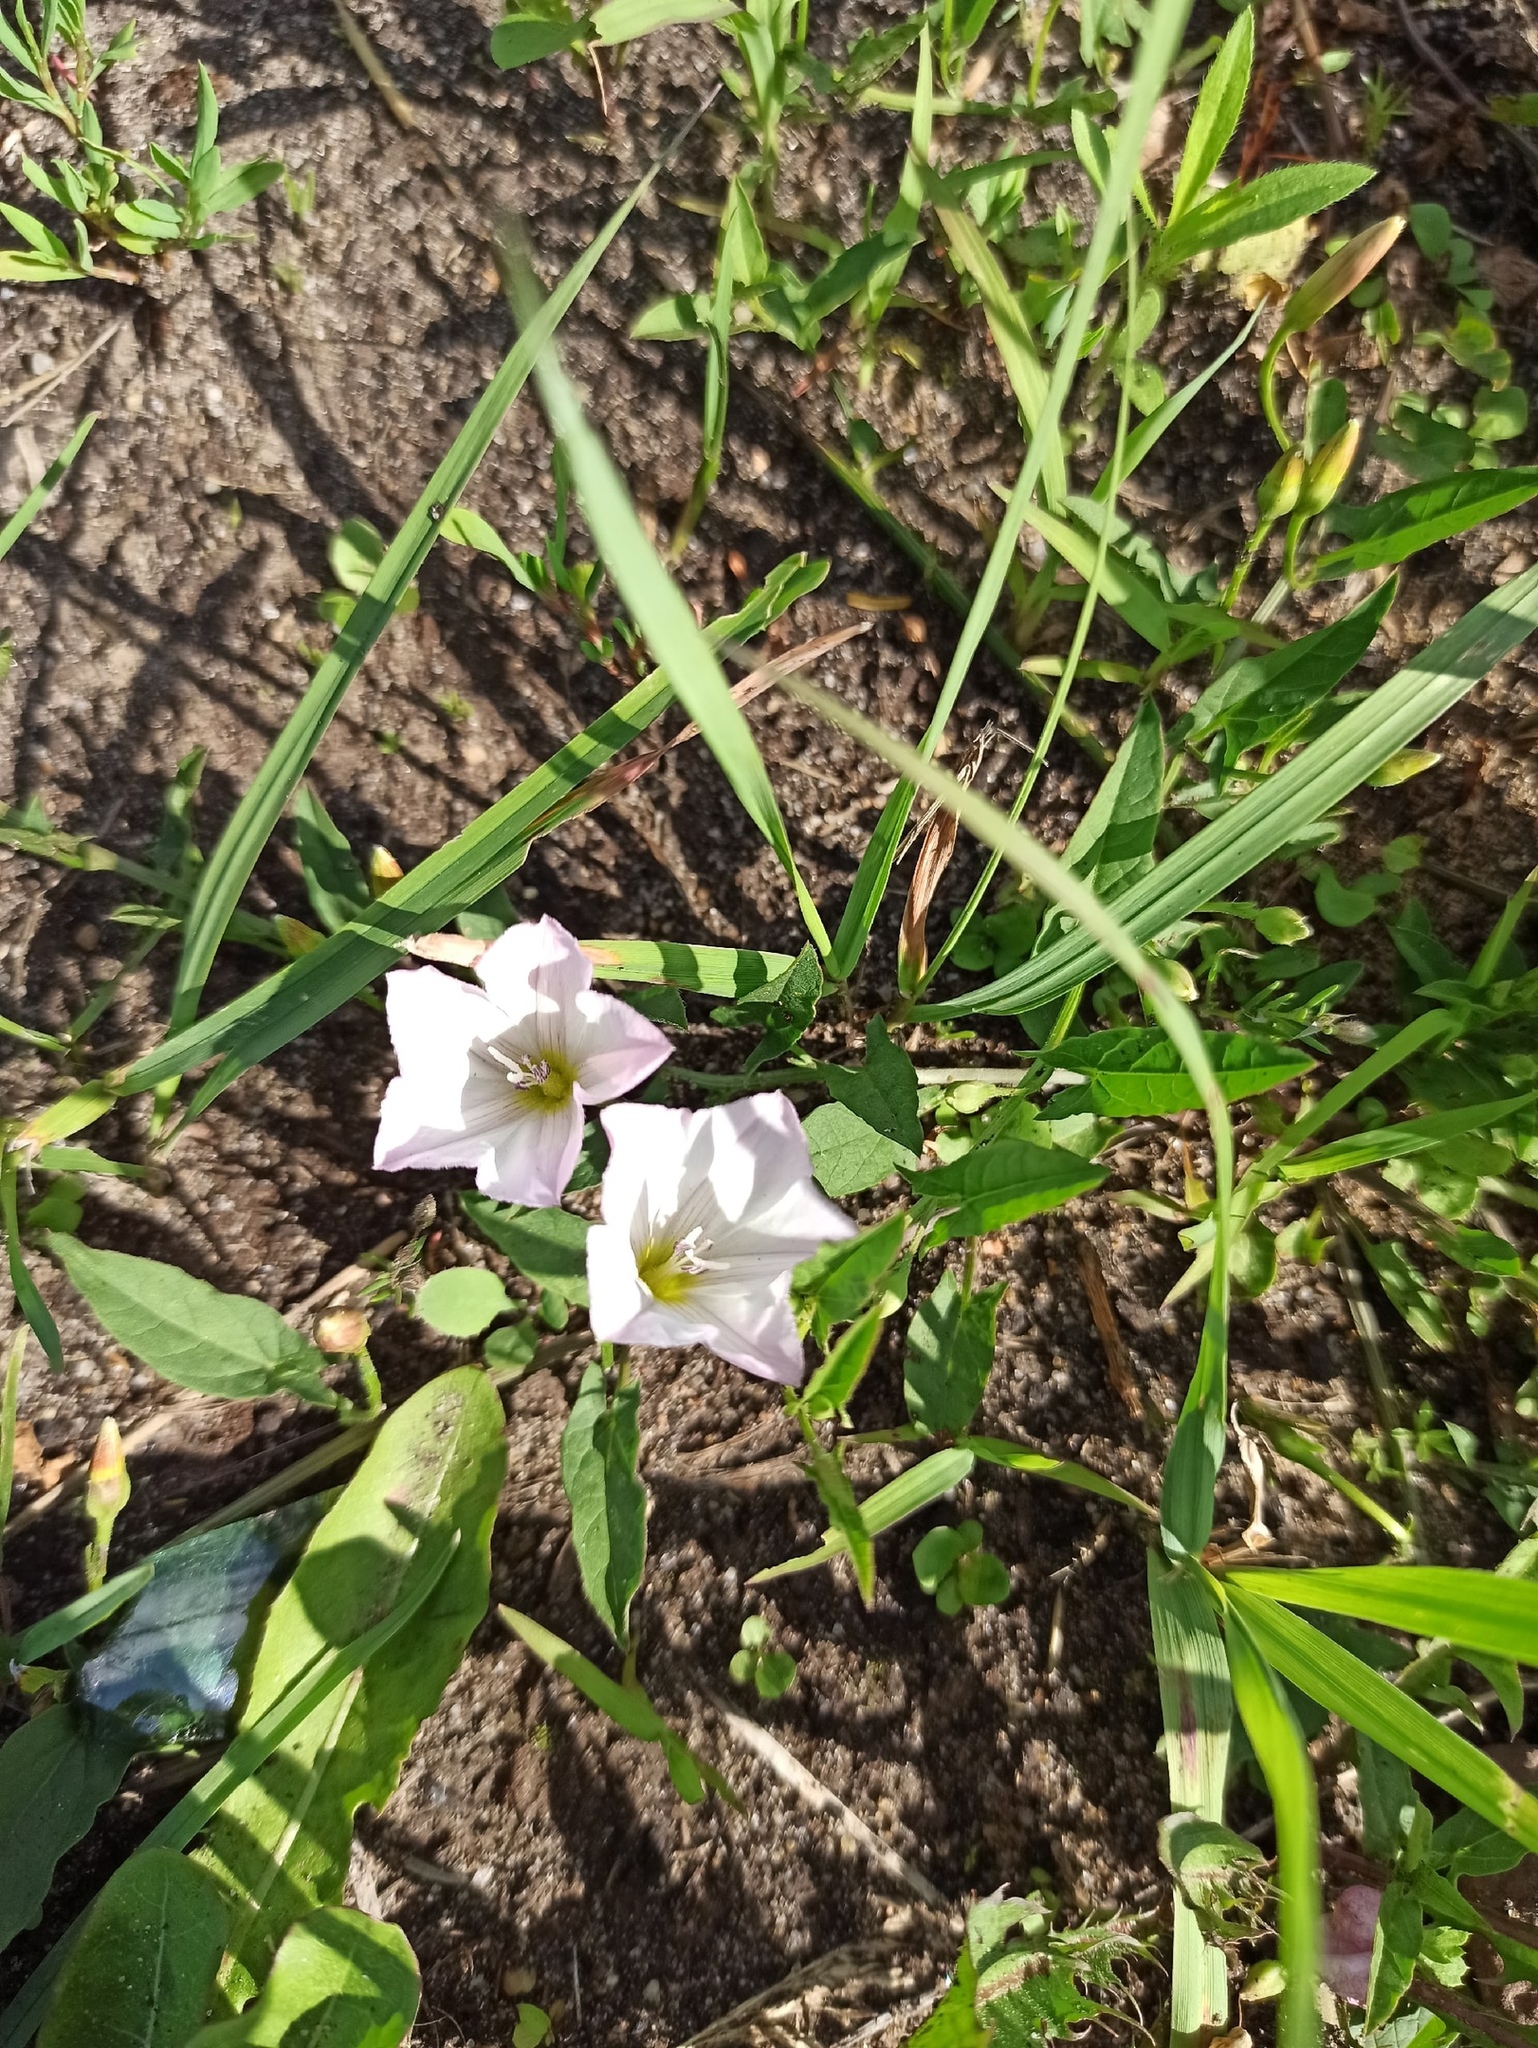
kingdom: Plantae
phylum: Tracheophyta
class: Magnoliopsida
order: Solanales
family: Convolvulaceae
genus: Convolvulus
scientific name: Convolvulus arvensis
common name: Field bindweed
